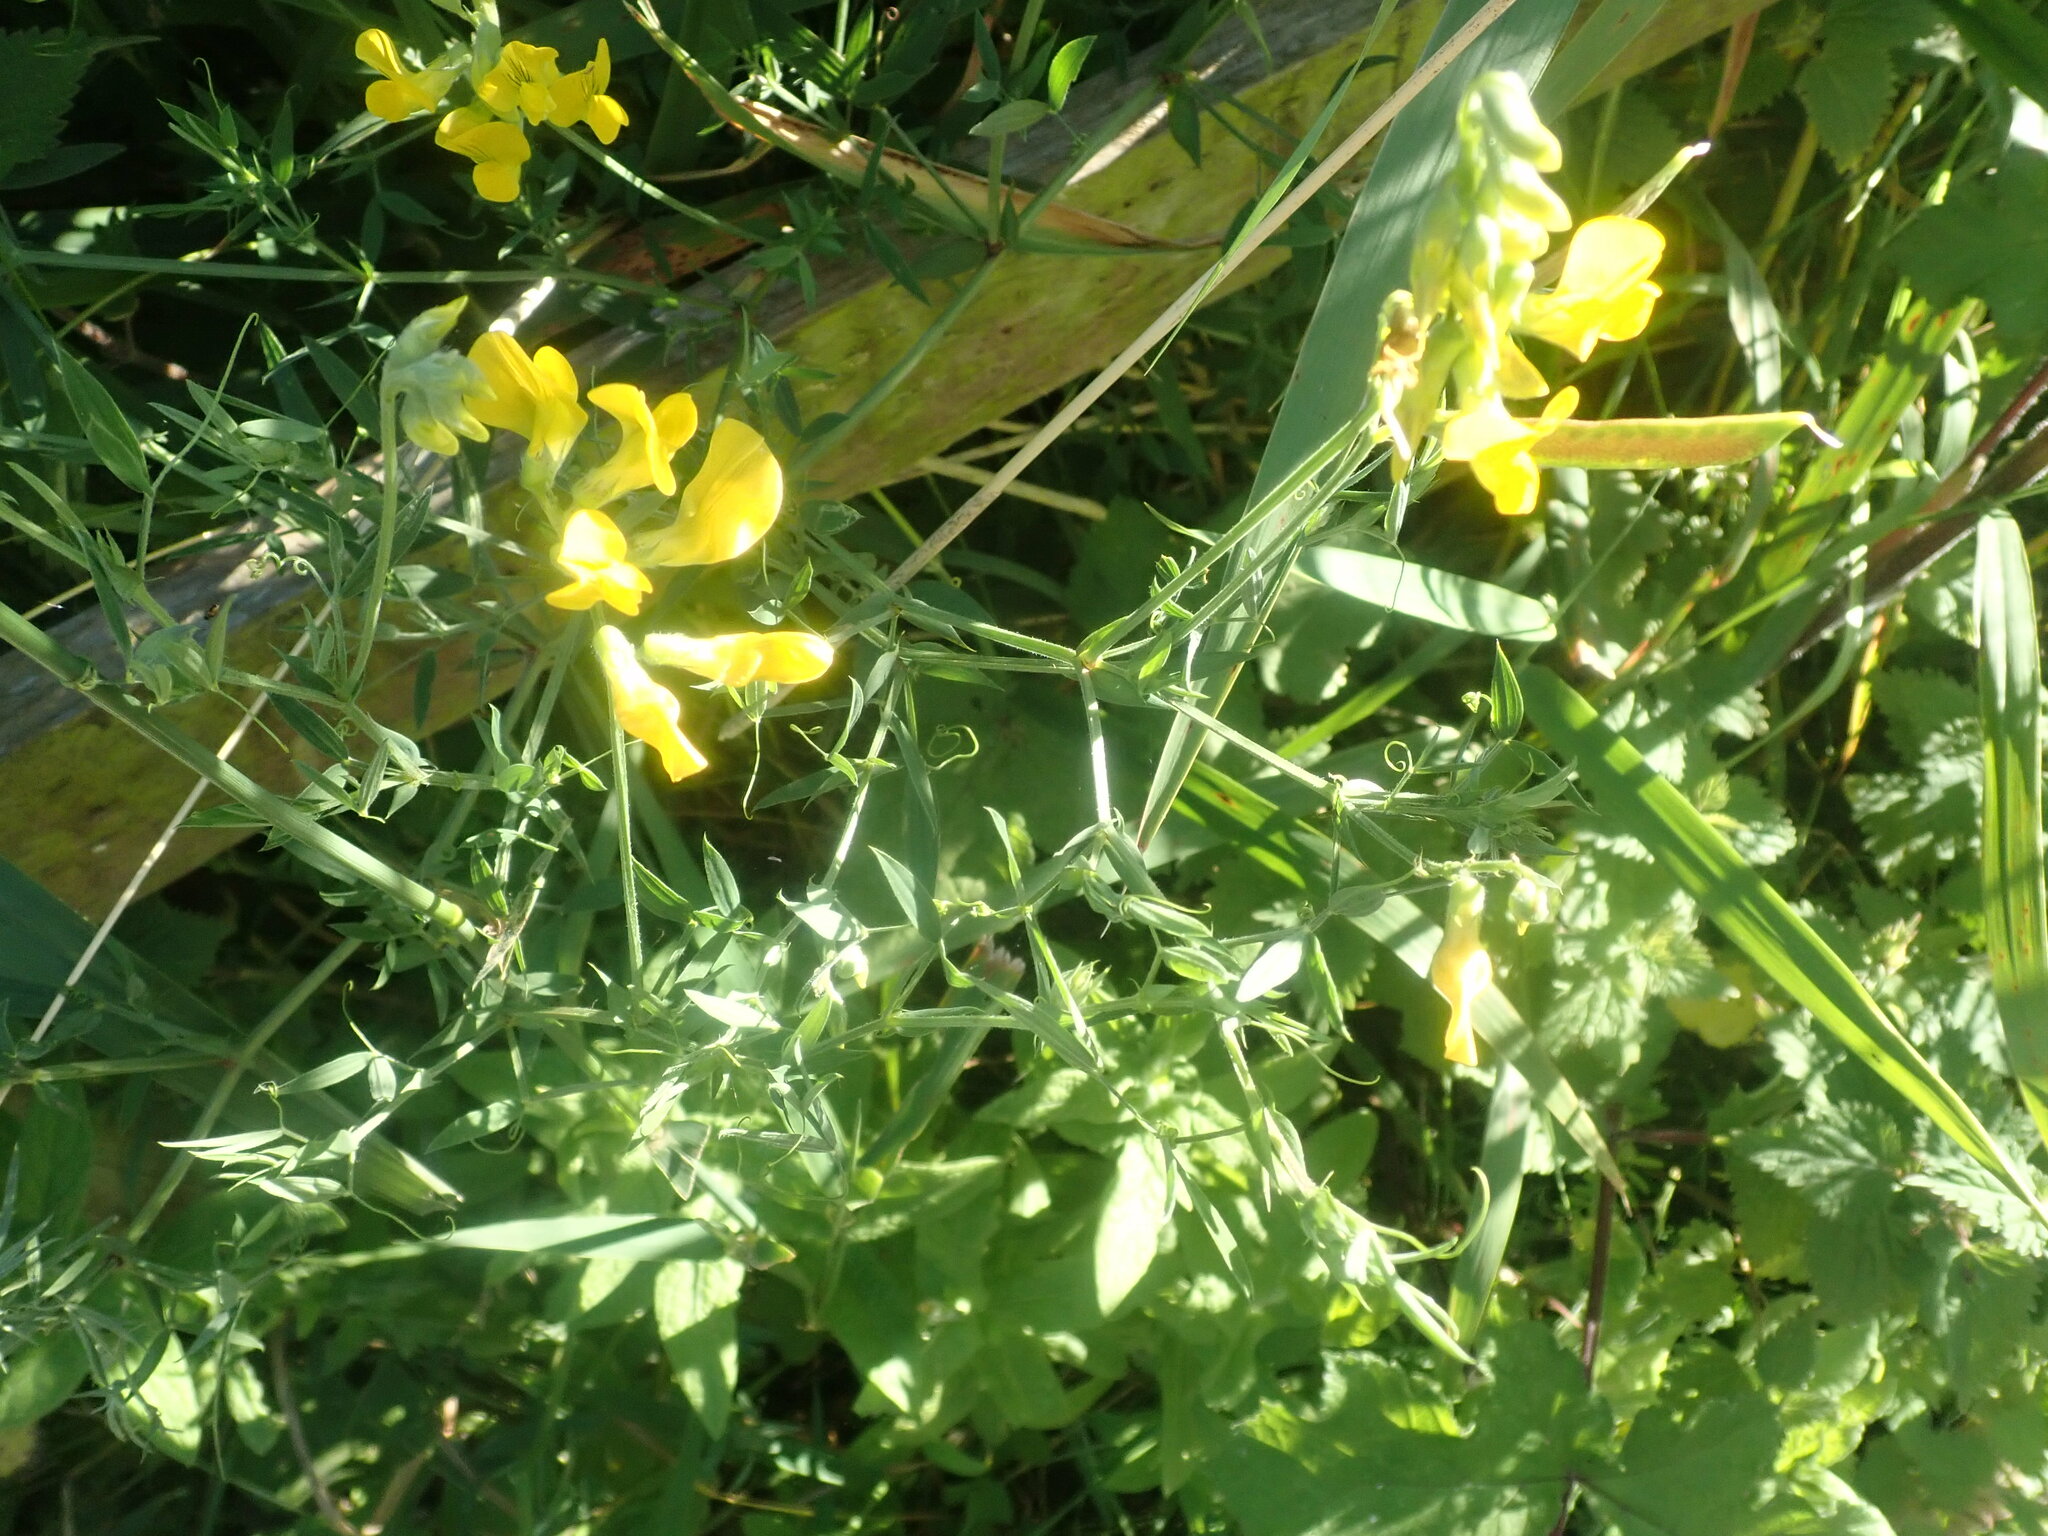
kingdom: Plantae
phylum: Tracheophyta
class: Magnoliopsida
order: Fabales
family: Fabaceae
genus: Lathyrus
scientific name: Lathyrus pratensis
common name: Meadow vetchling
